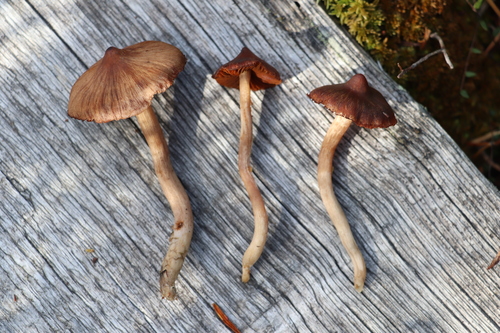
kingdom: Fungi
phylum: Basidiomycota
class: Agaricomycetes
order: Agaricales
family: Cortinariaceae
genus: Cortinarius
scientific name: Cortinarius glandicolor
